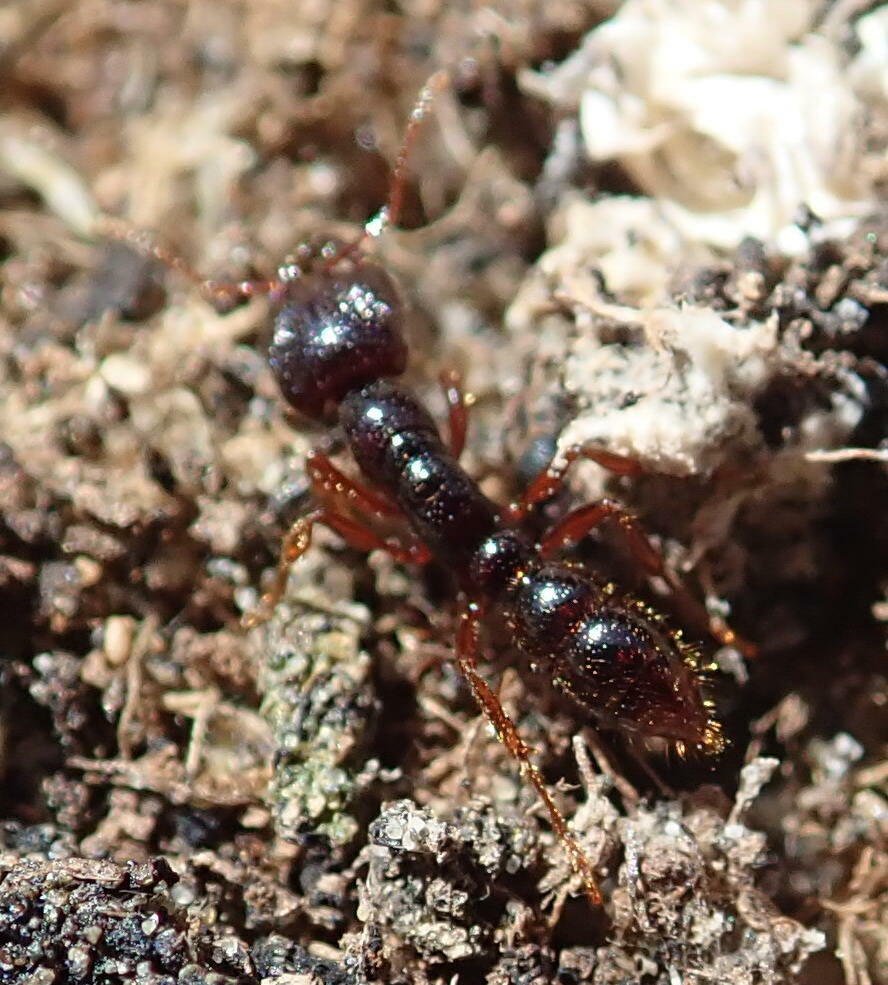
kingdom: Animalia
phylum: Arthropoda
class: Insecta
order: Hymenoptera
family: Formicidae
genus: Amblyopone
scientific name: Amblyopone australis
